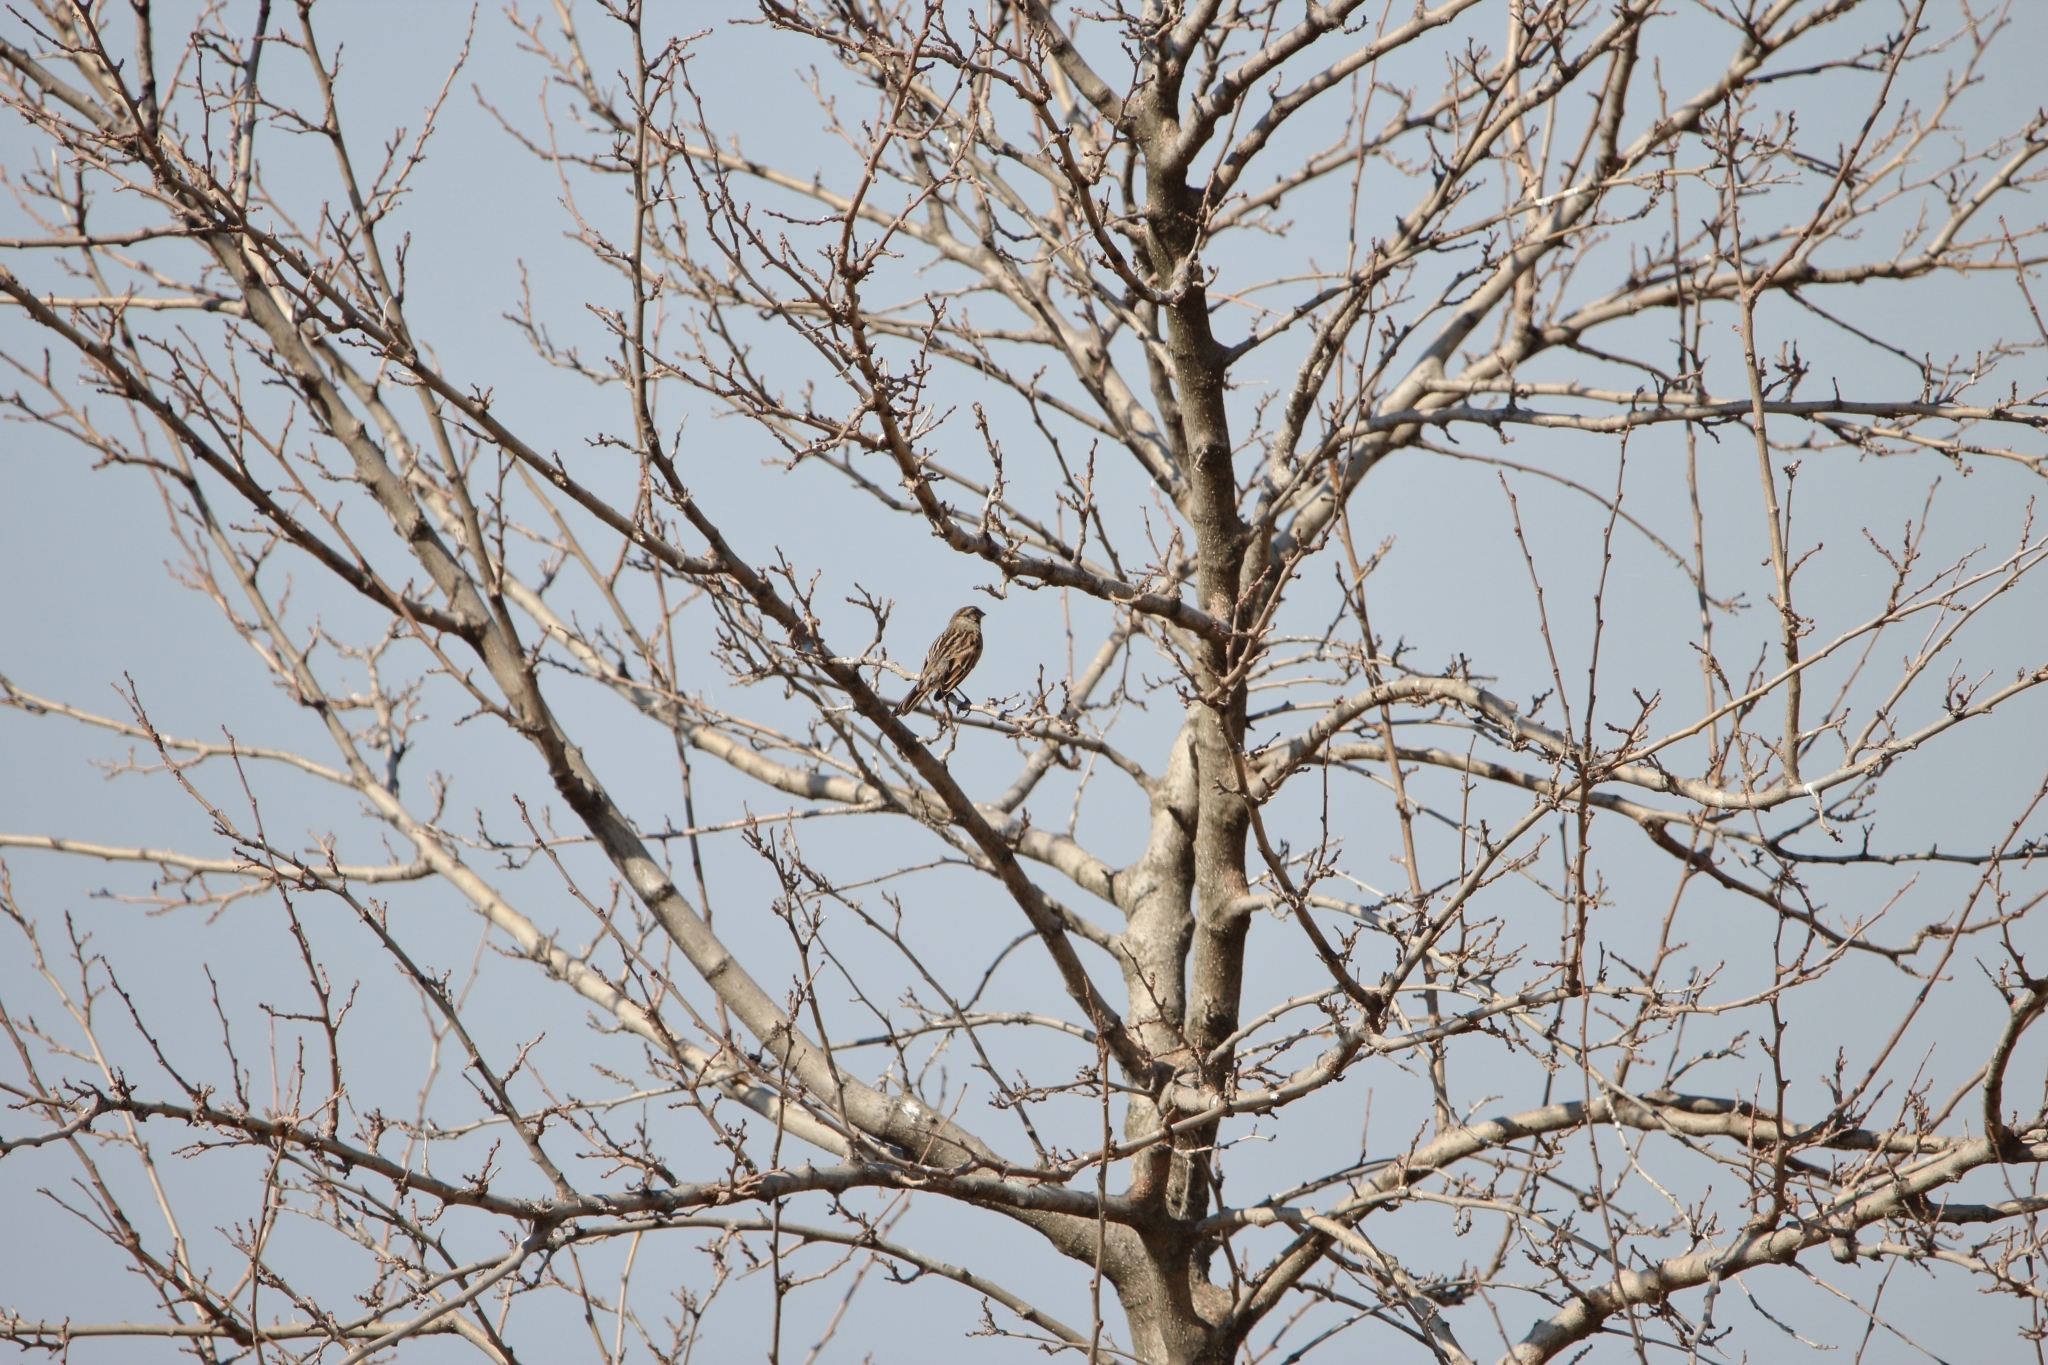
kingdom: Animalia
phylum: Chordata
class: Aves
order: Passeriformes
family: Emberizidae
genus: Emberiza
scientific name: Emberiza schoeniclus
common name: Reed bunting
